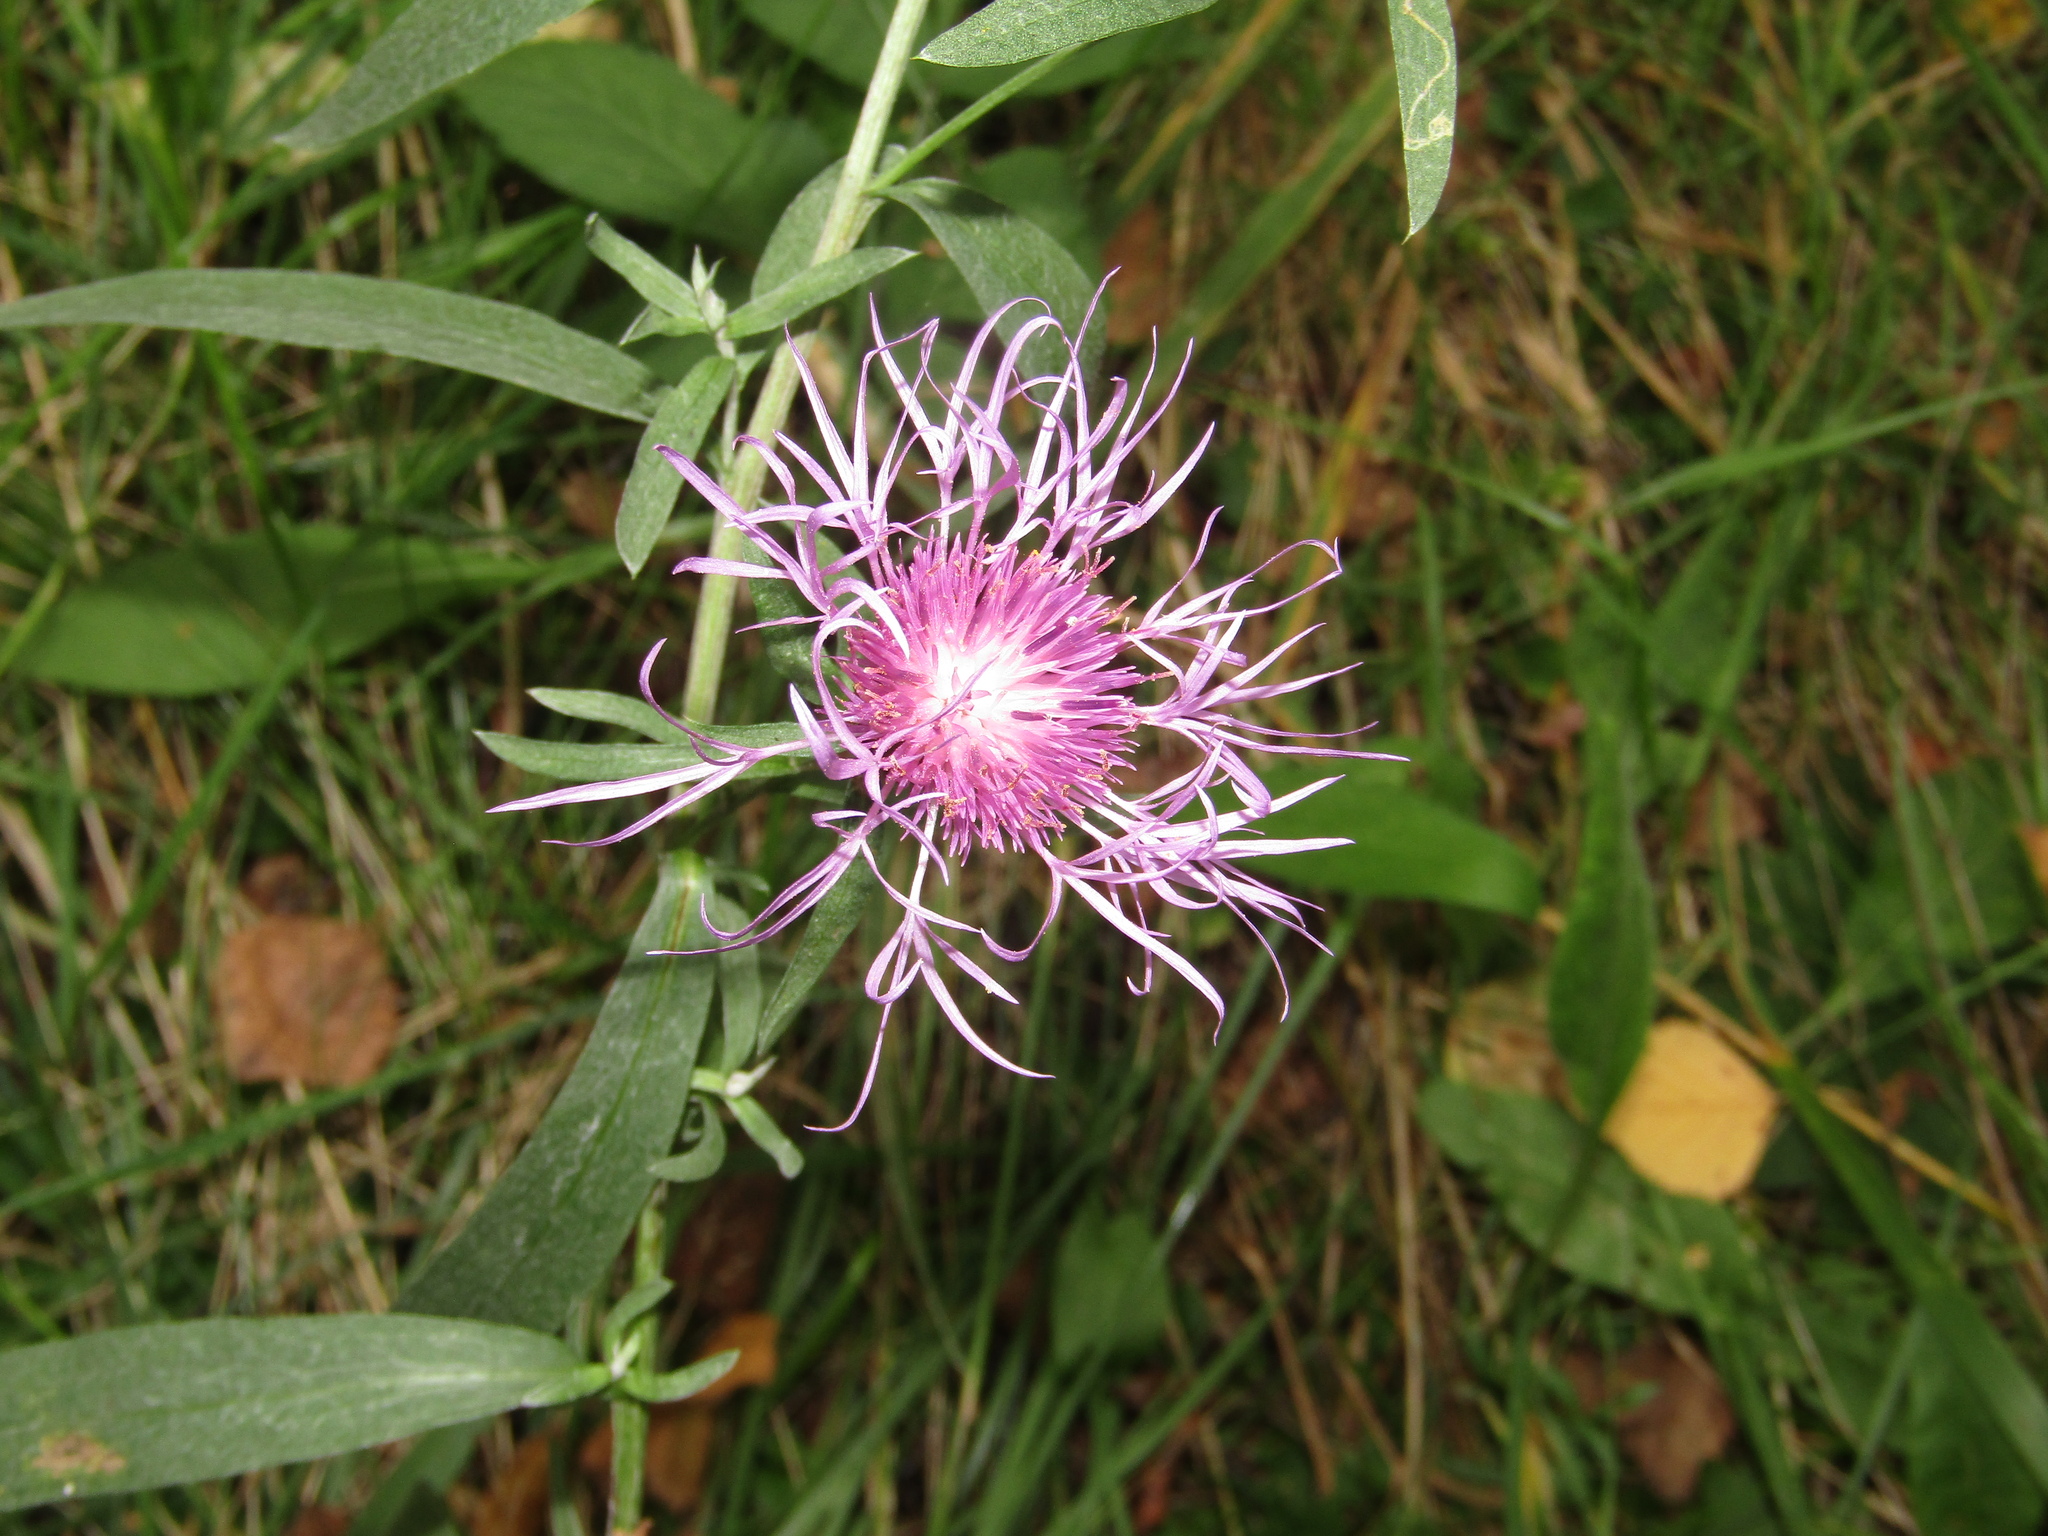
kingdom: Plantae
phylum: Tracheophyta
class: Magnoliopsida
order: Asterales
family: Asteraceae
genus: Centaurea
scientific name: Centaurea jacea
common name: Brown knapweed
